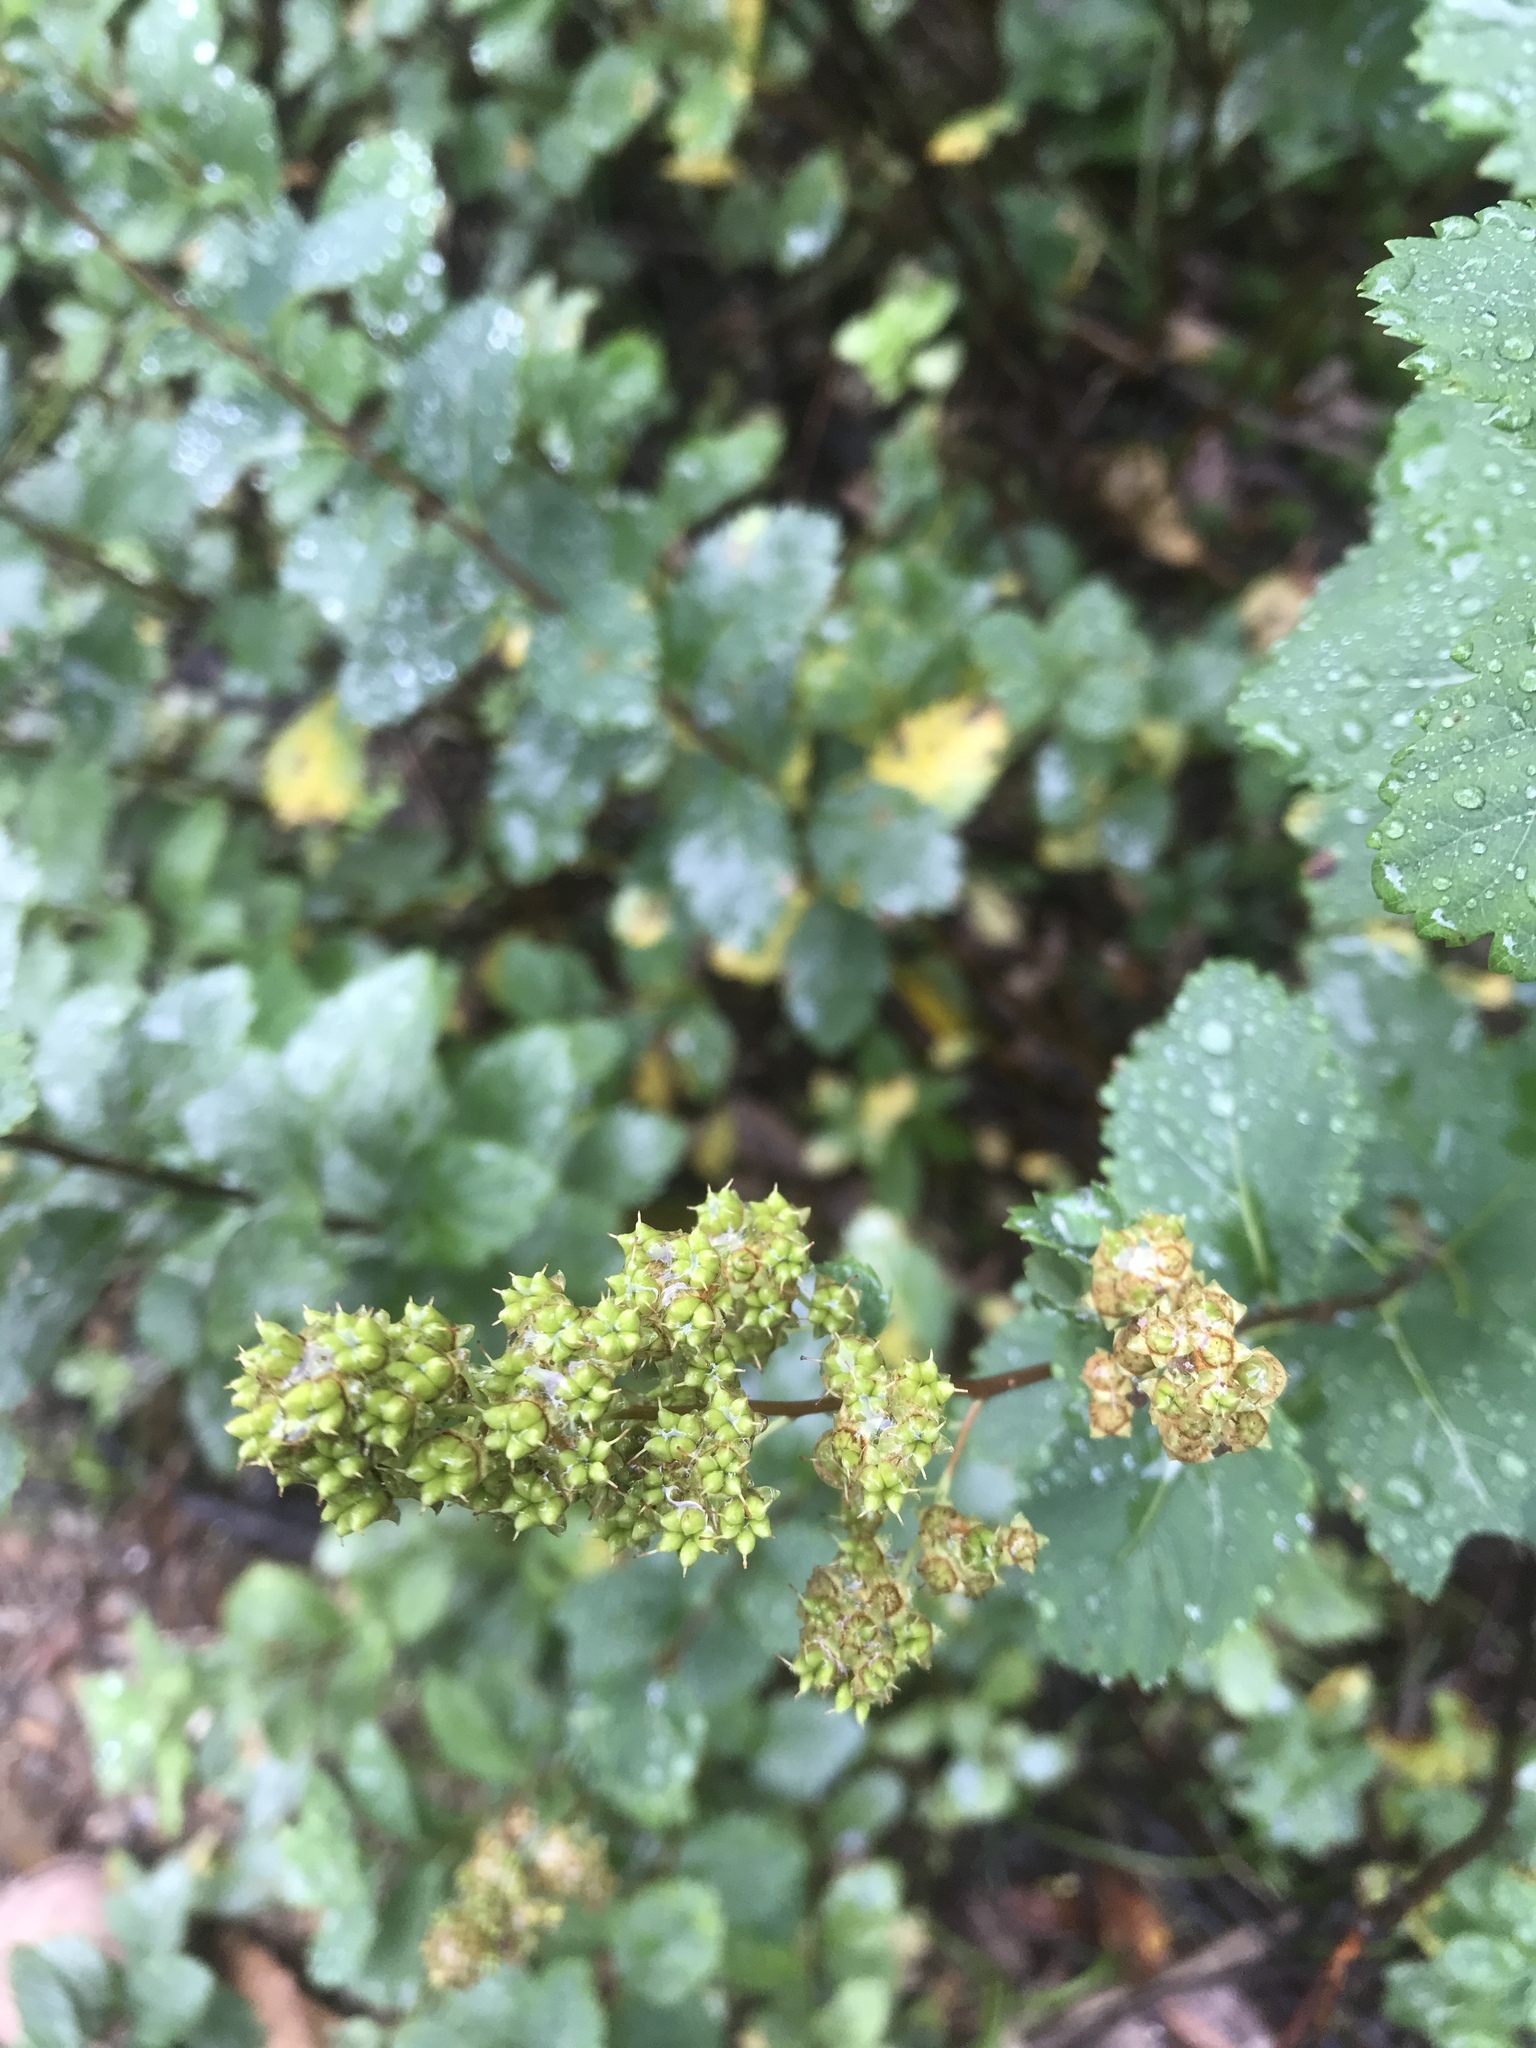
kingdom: Plantae
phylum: Tracheophyta
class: Magnoliopsida
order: Rosales
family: Rosaceae
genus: Spiraea
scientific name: Spiraea alba
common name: Pale bridewort
